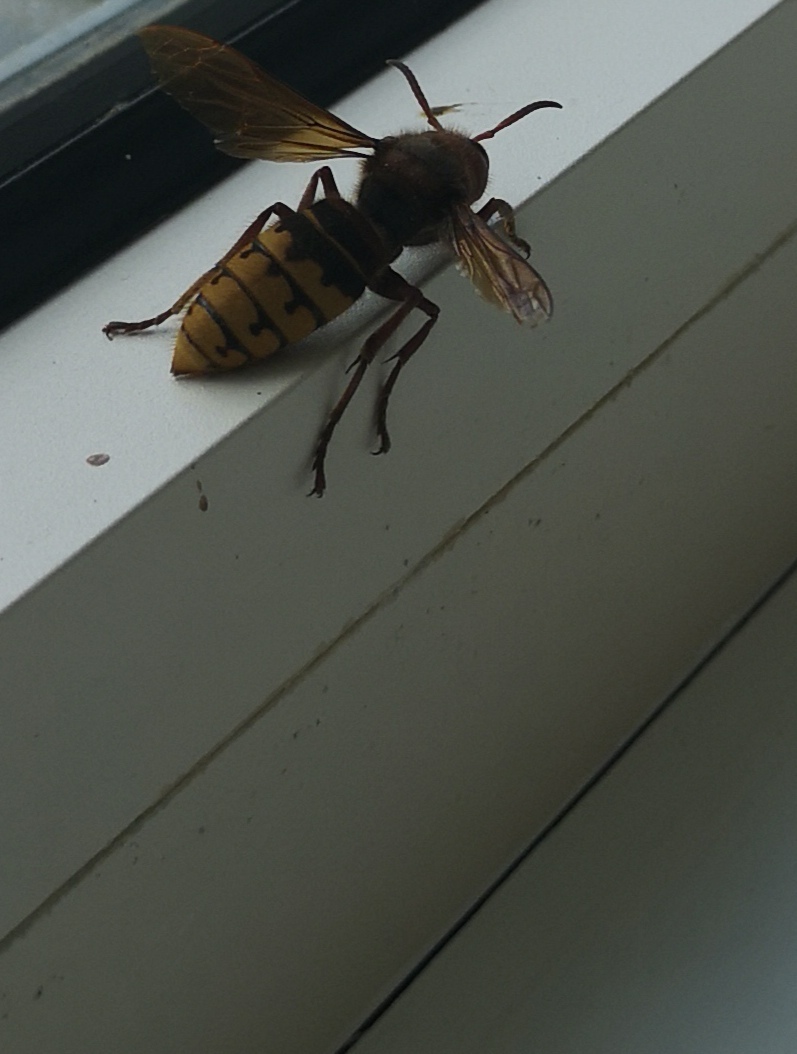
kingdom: Animalia
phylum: Arthropoda
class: Insecta
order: Hymenoptera
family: Vespidae
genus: Vespa
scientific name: Vespa crabro
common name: Hornet
